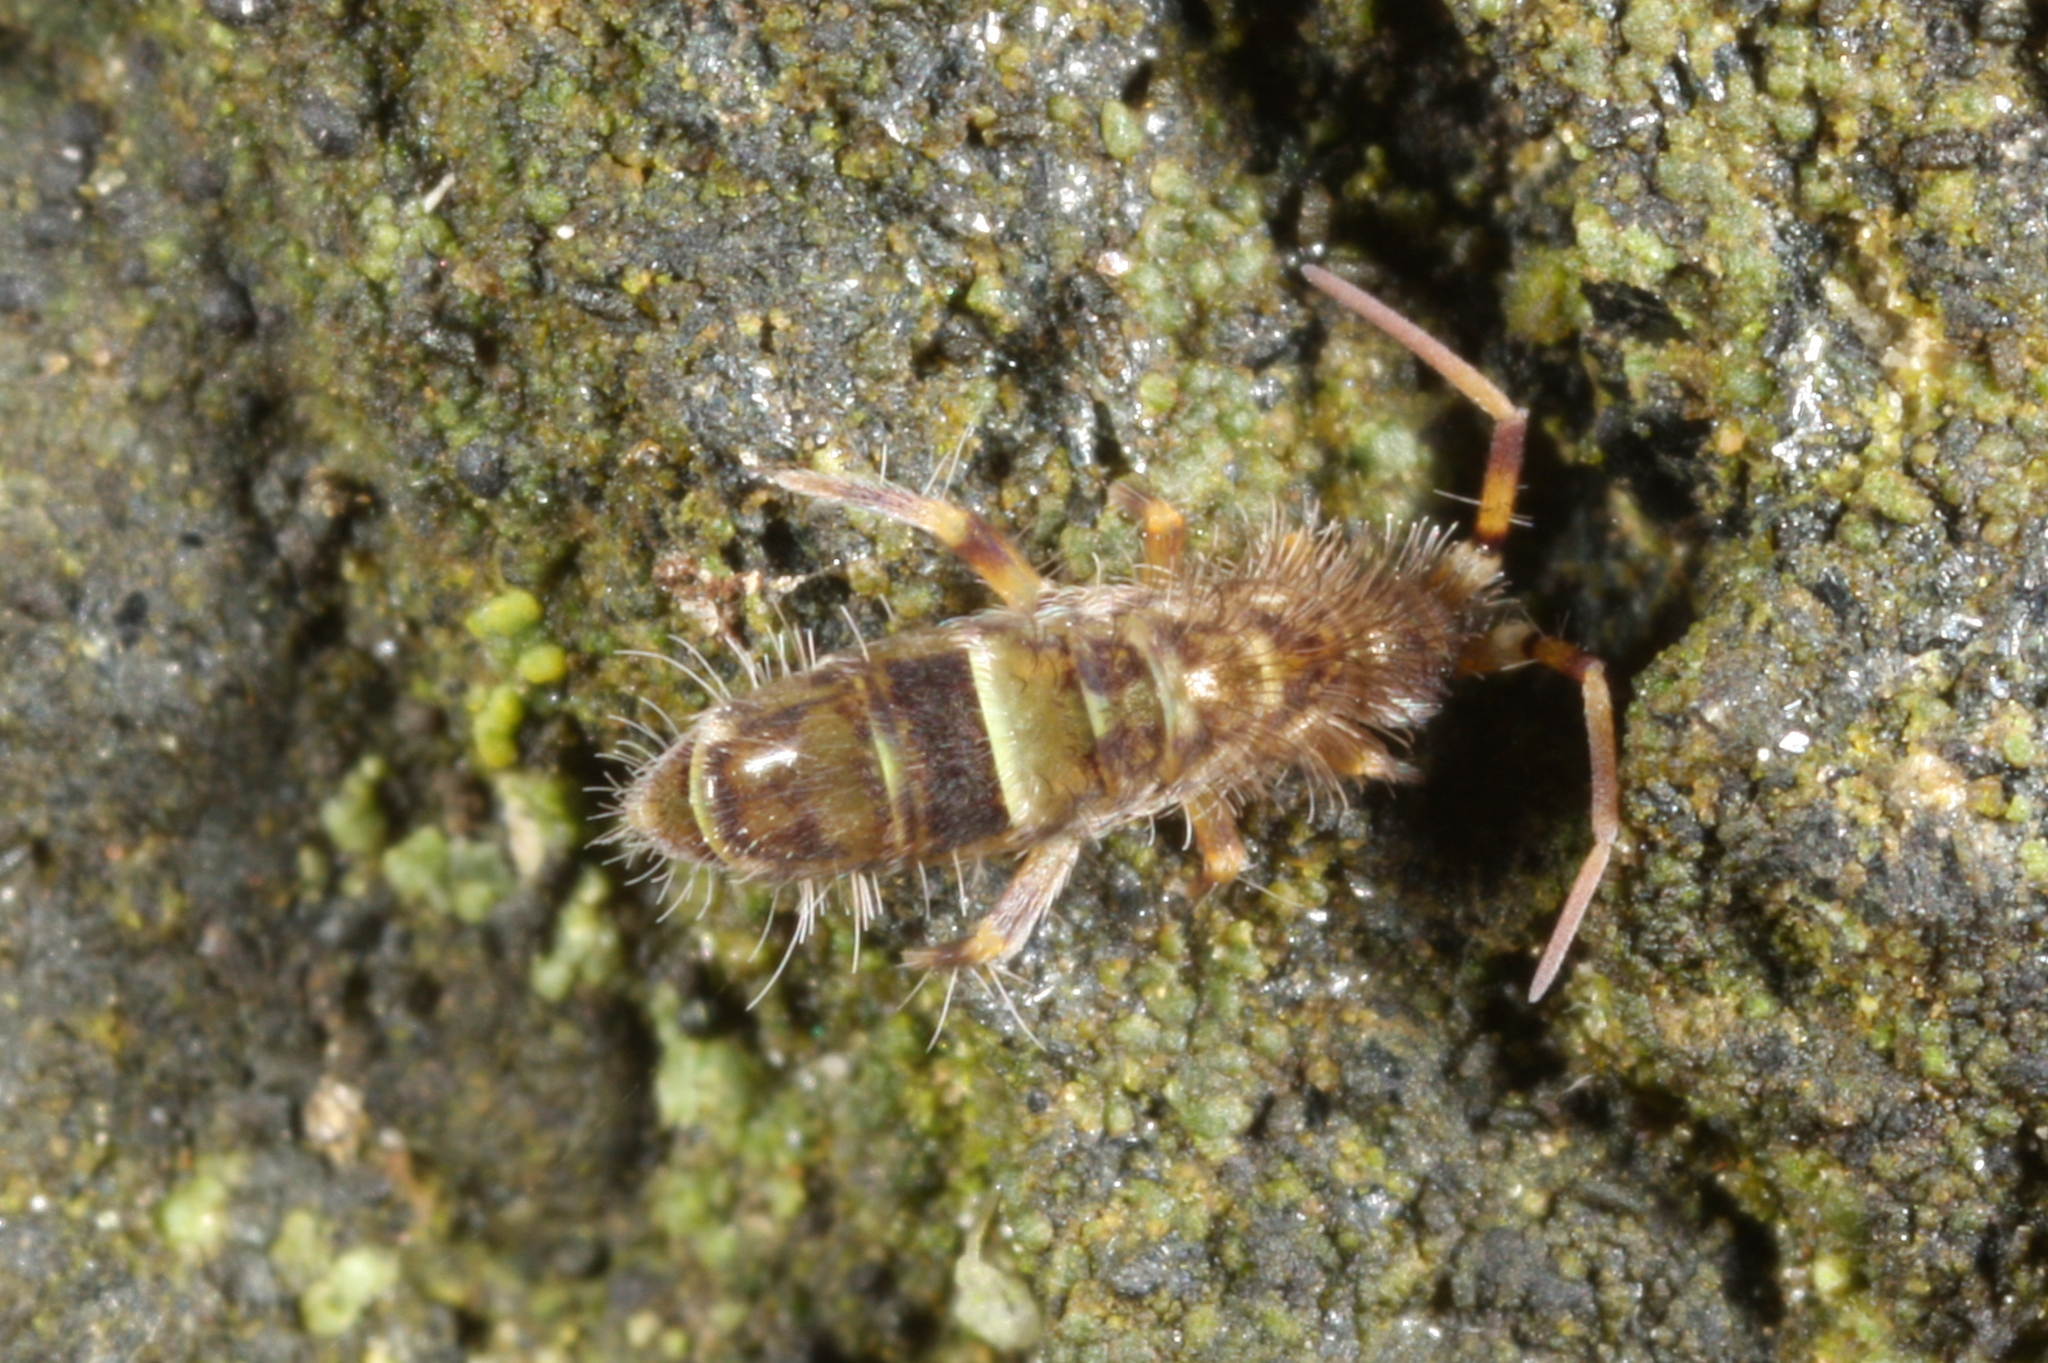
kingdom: Animalia
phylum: Arthropoda
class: Collembola
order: Entomobryomorpha
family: Orchesellidae
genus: Orchesella
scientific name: Orchesella cincta
